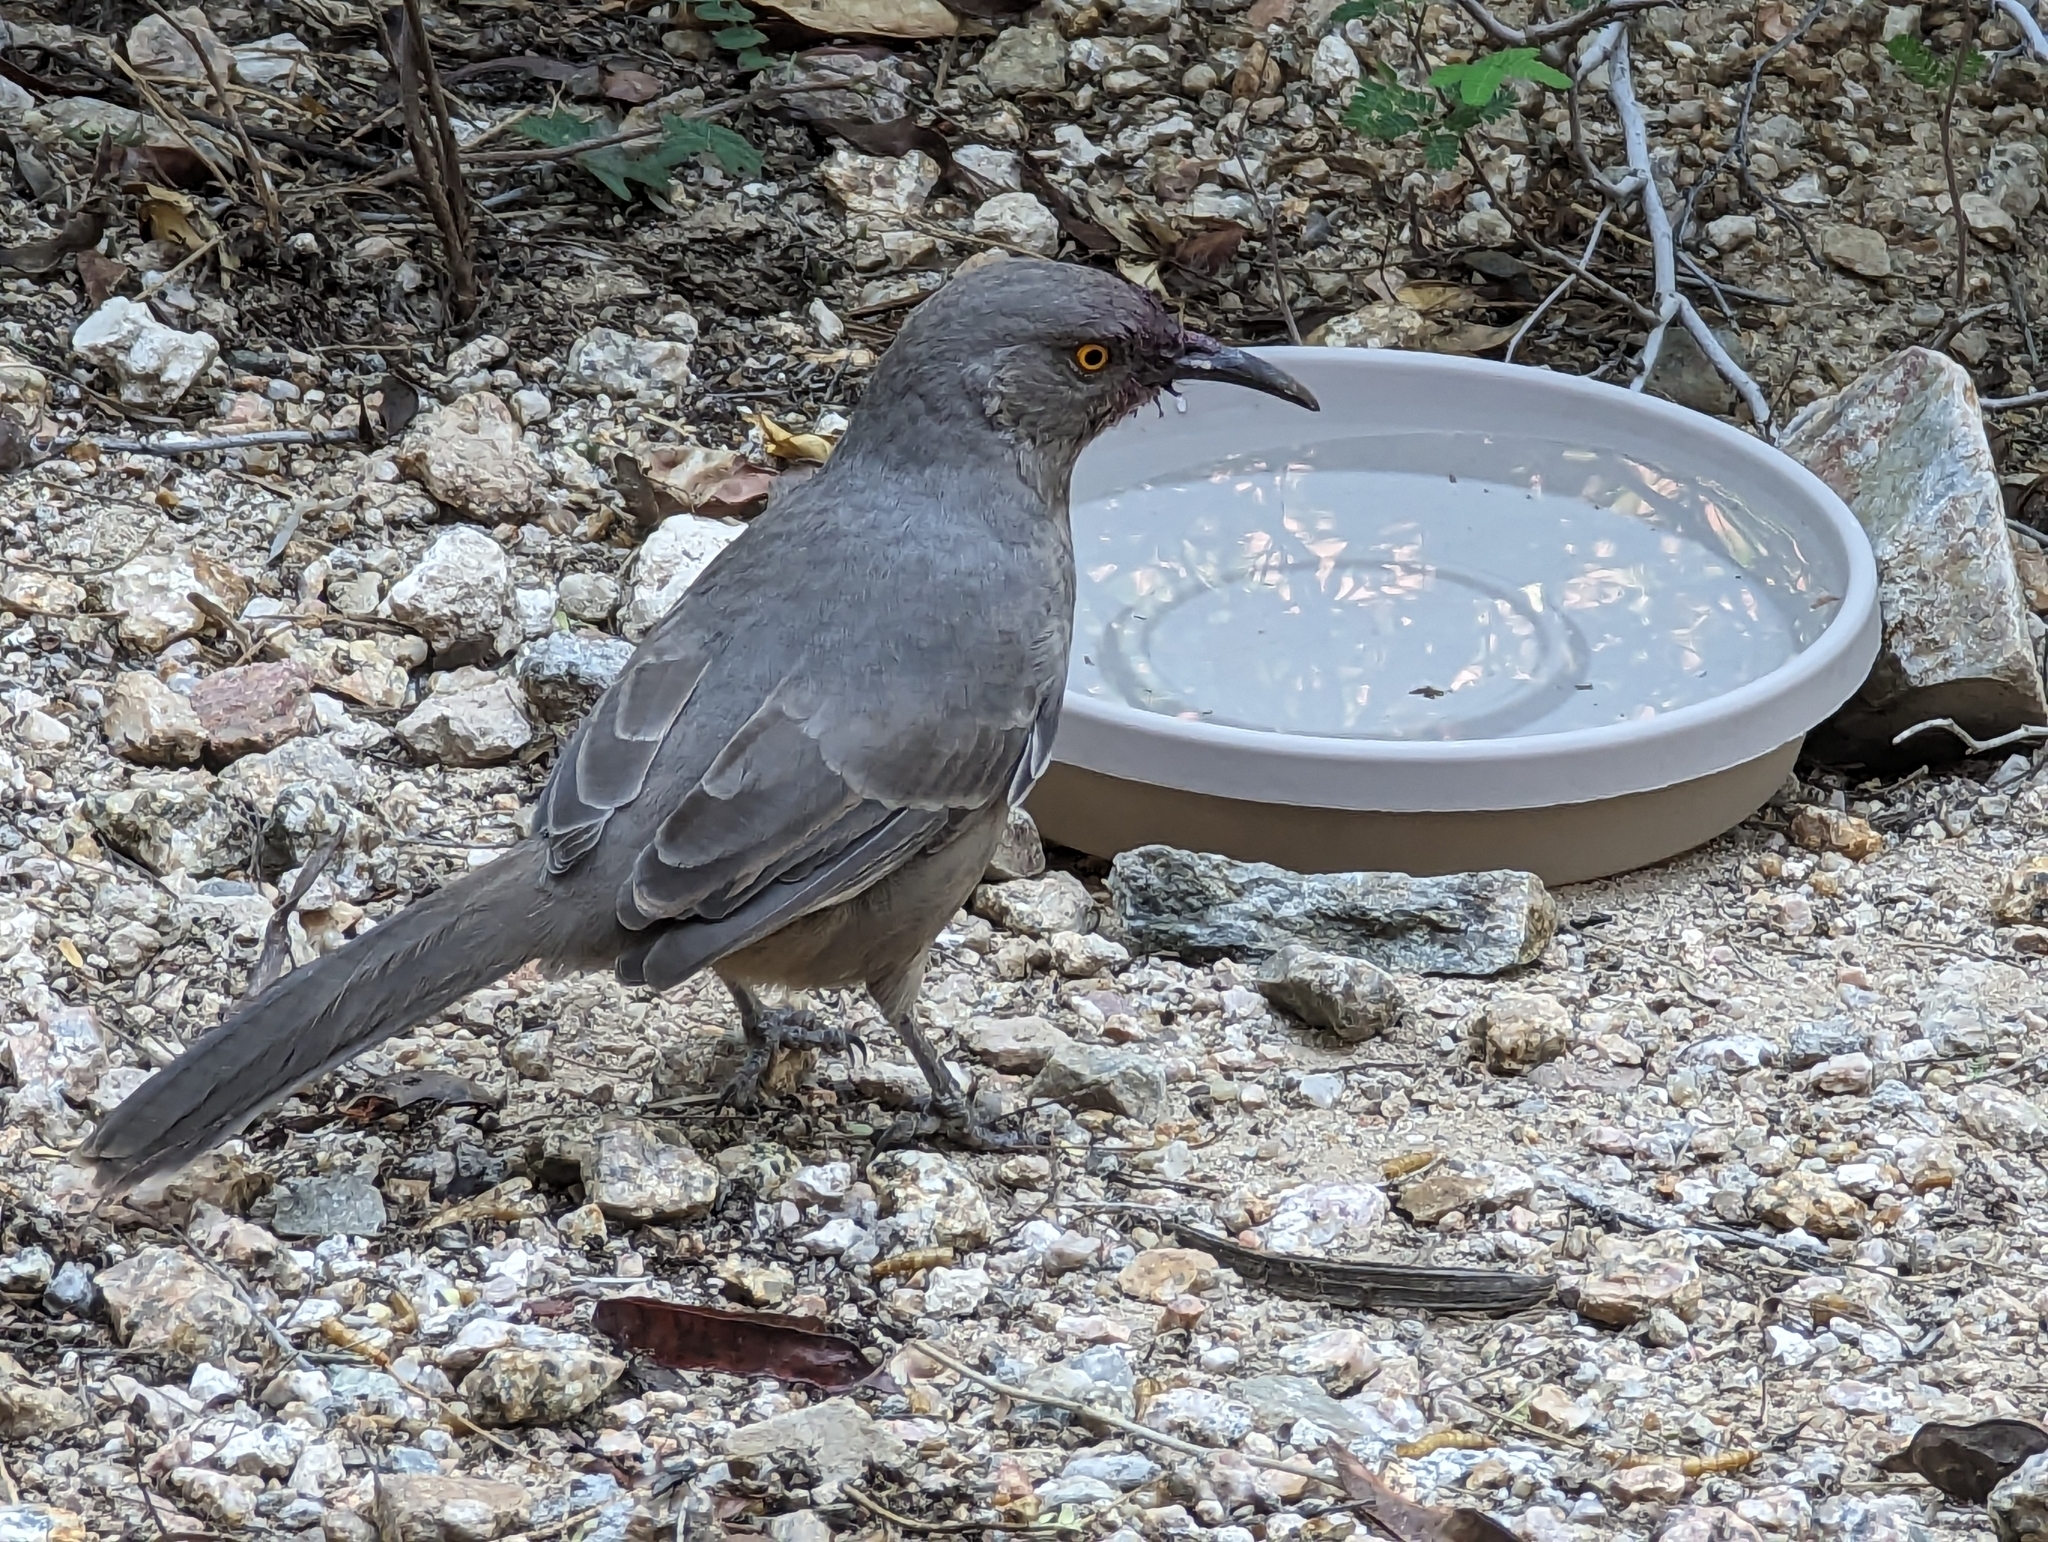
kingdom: Animalia
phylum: Chordata
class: Aves
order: Passeriformes
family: Mimidae
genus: Toxostoma
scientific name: Toxostoma curvirostre
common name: Curve-billed thrasher
